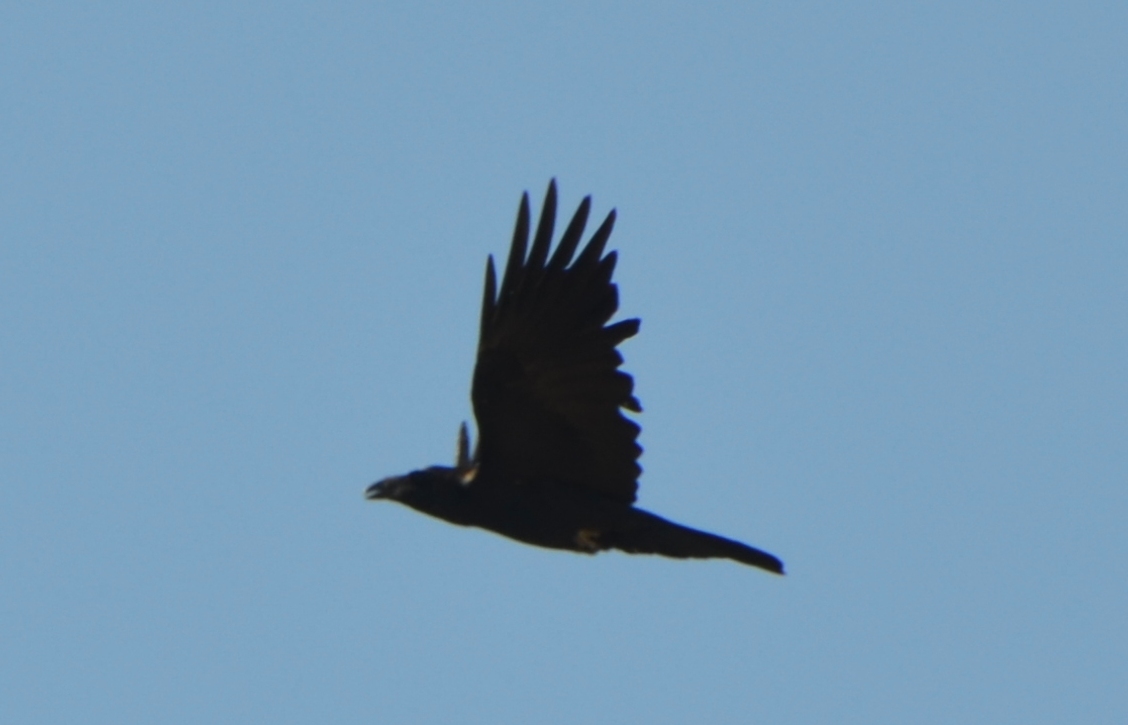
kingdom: Animalia
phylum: Chordata
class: Aves
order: Passeriformes
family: Corvidae
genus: Corvus
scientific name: Corvus corax
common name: Common raven
